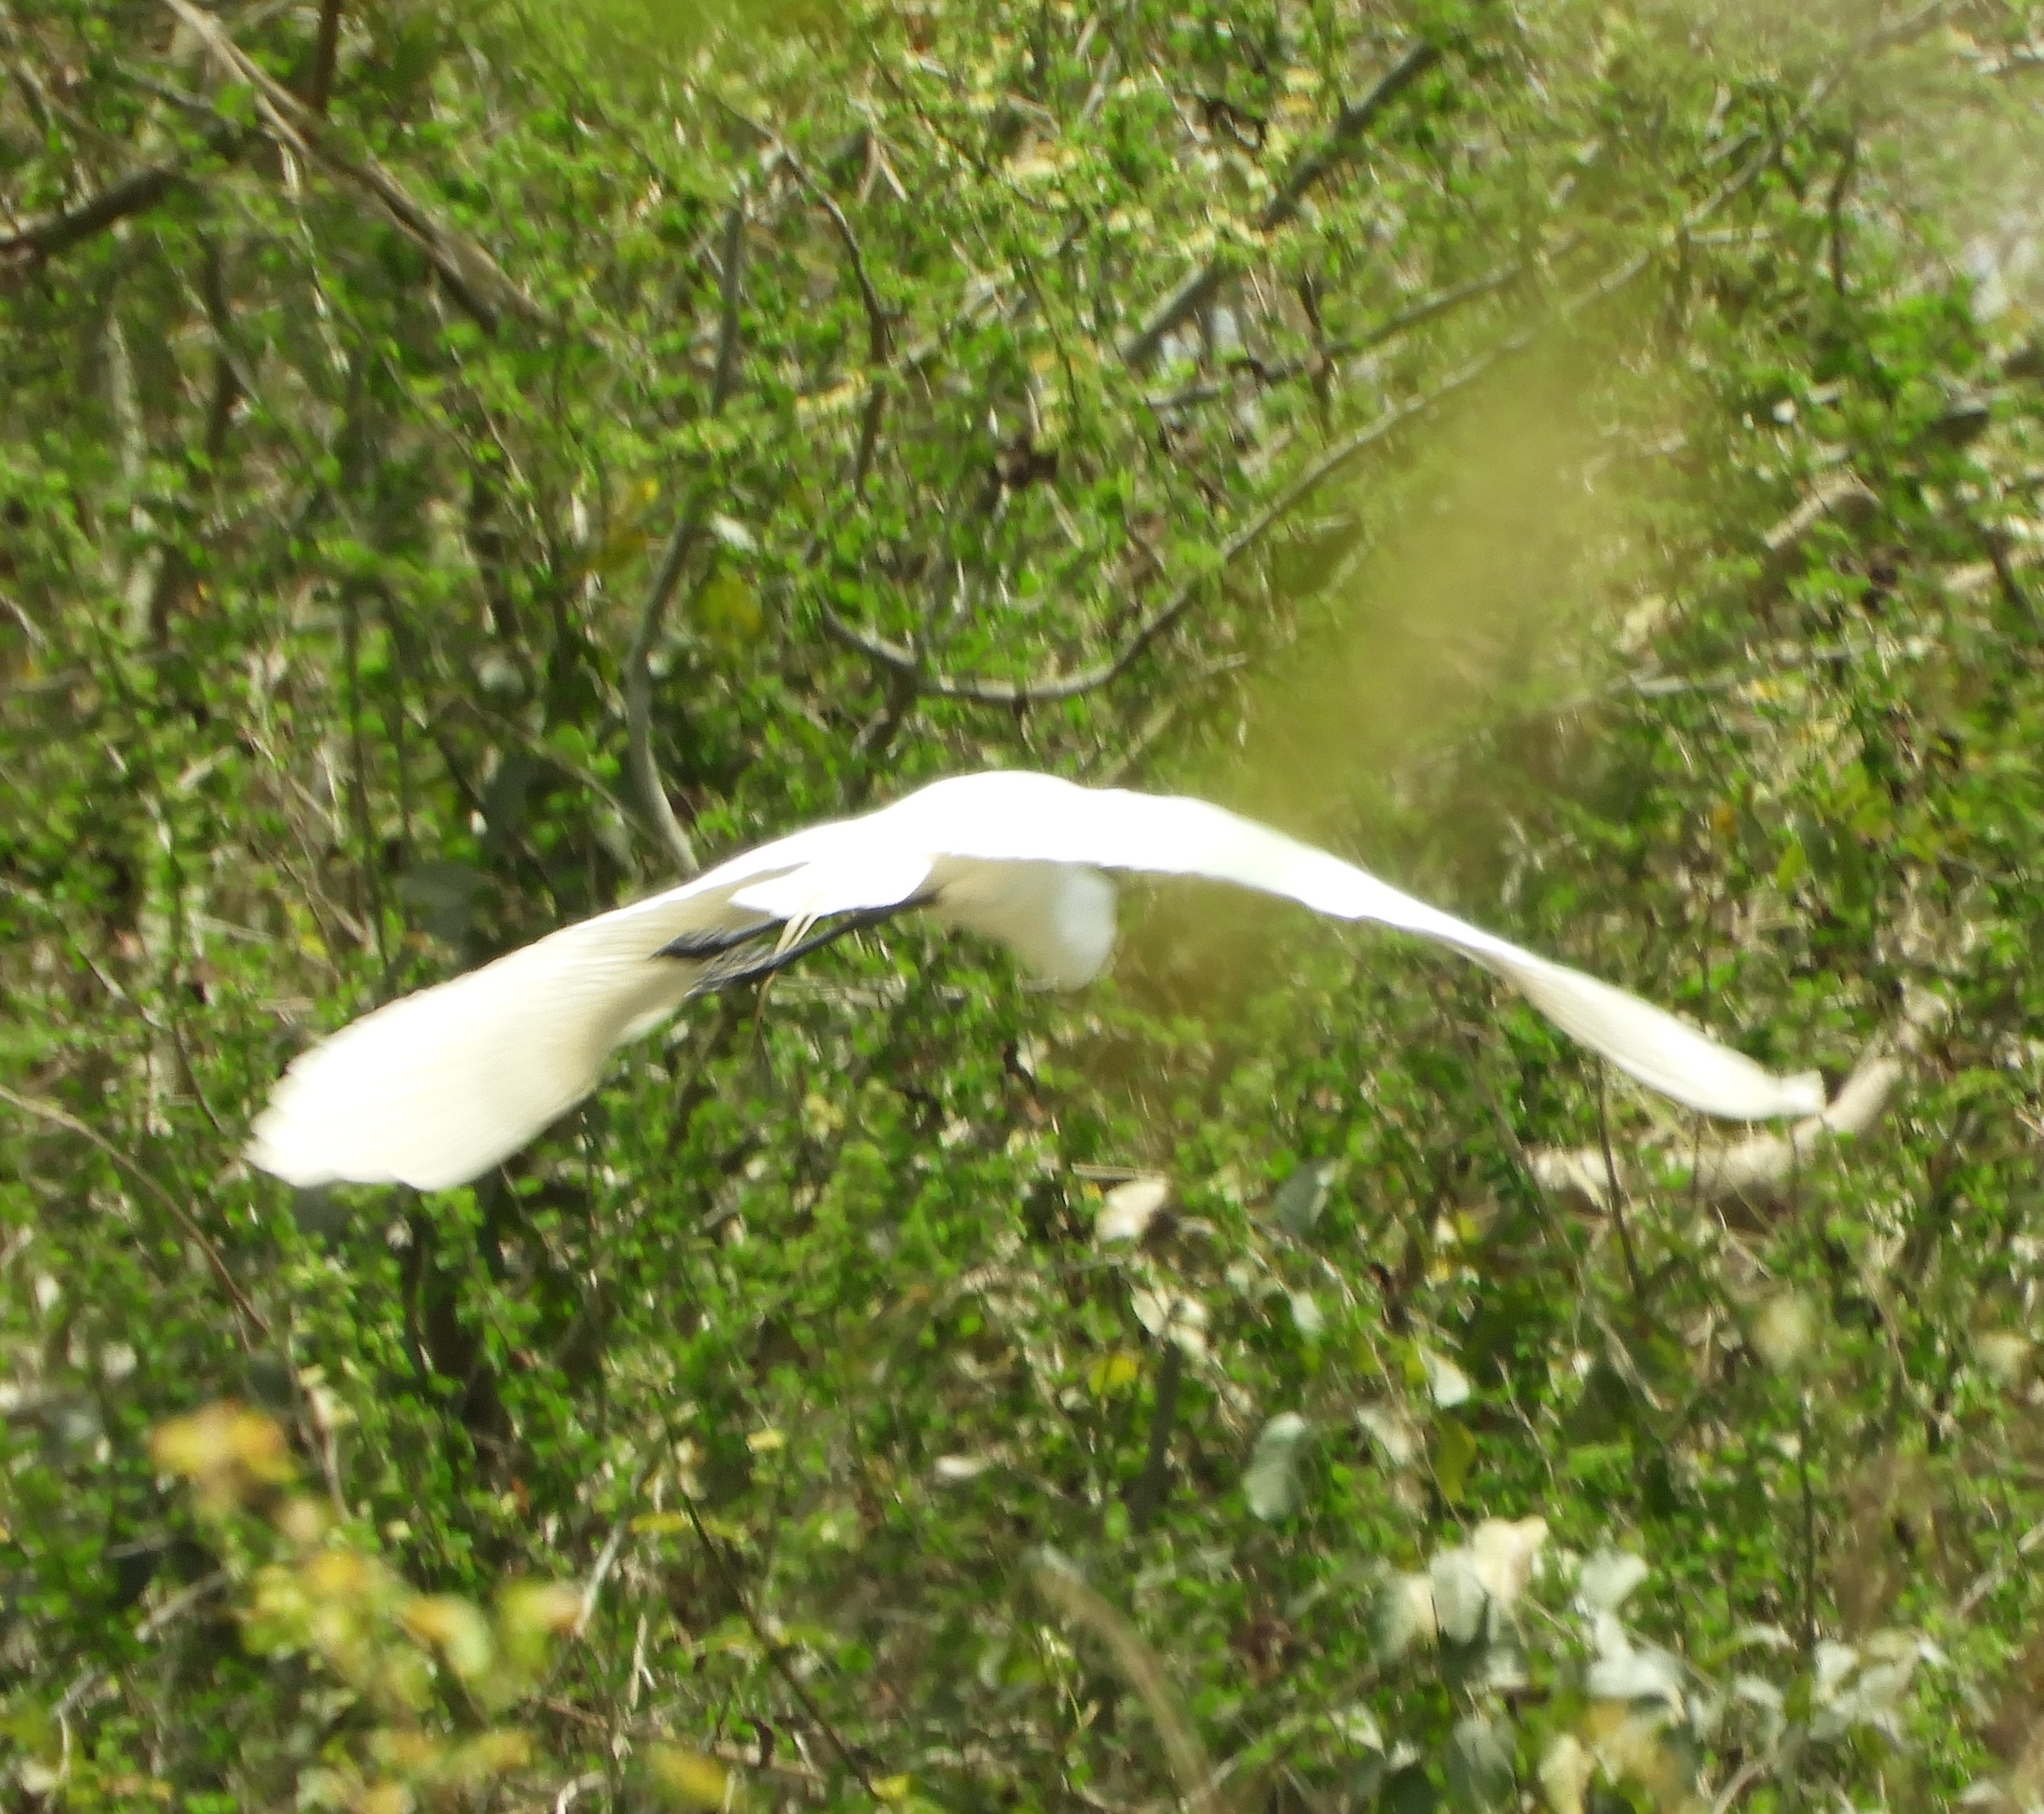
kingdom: Animalia
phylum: Chordata
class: Aves
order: Pelecaniformes
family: Ardeidae
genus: Ardea
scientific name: Ardea alba
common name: Great egret
